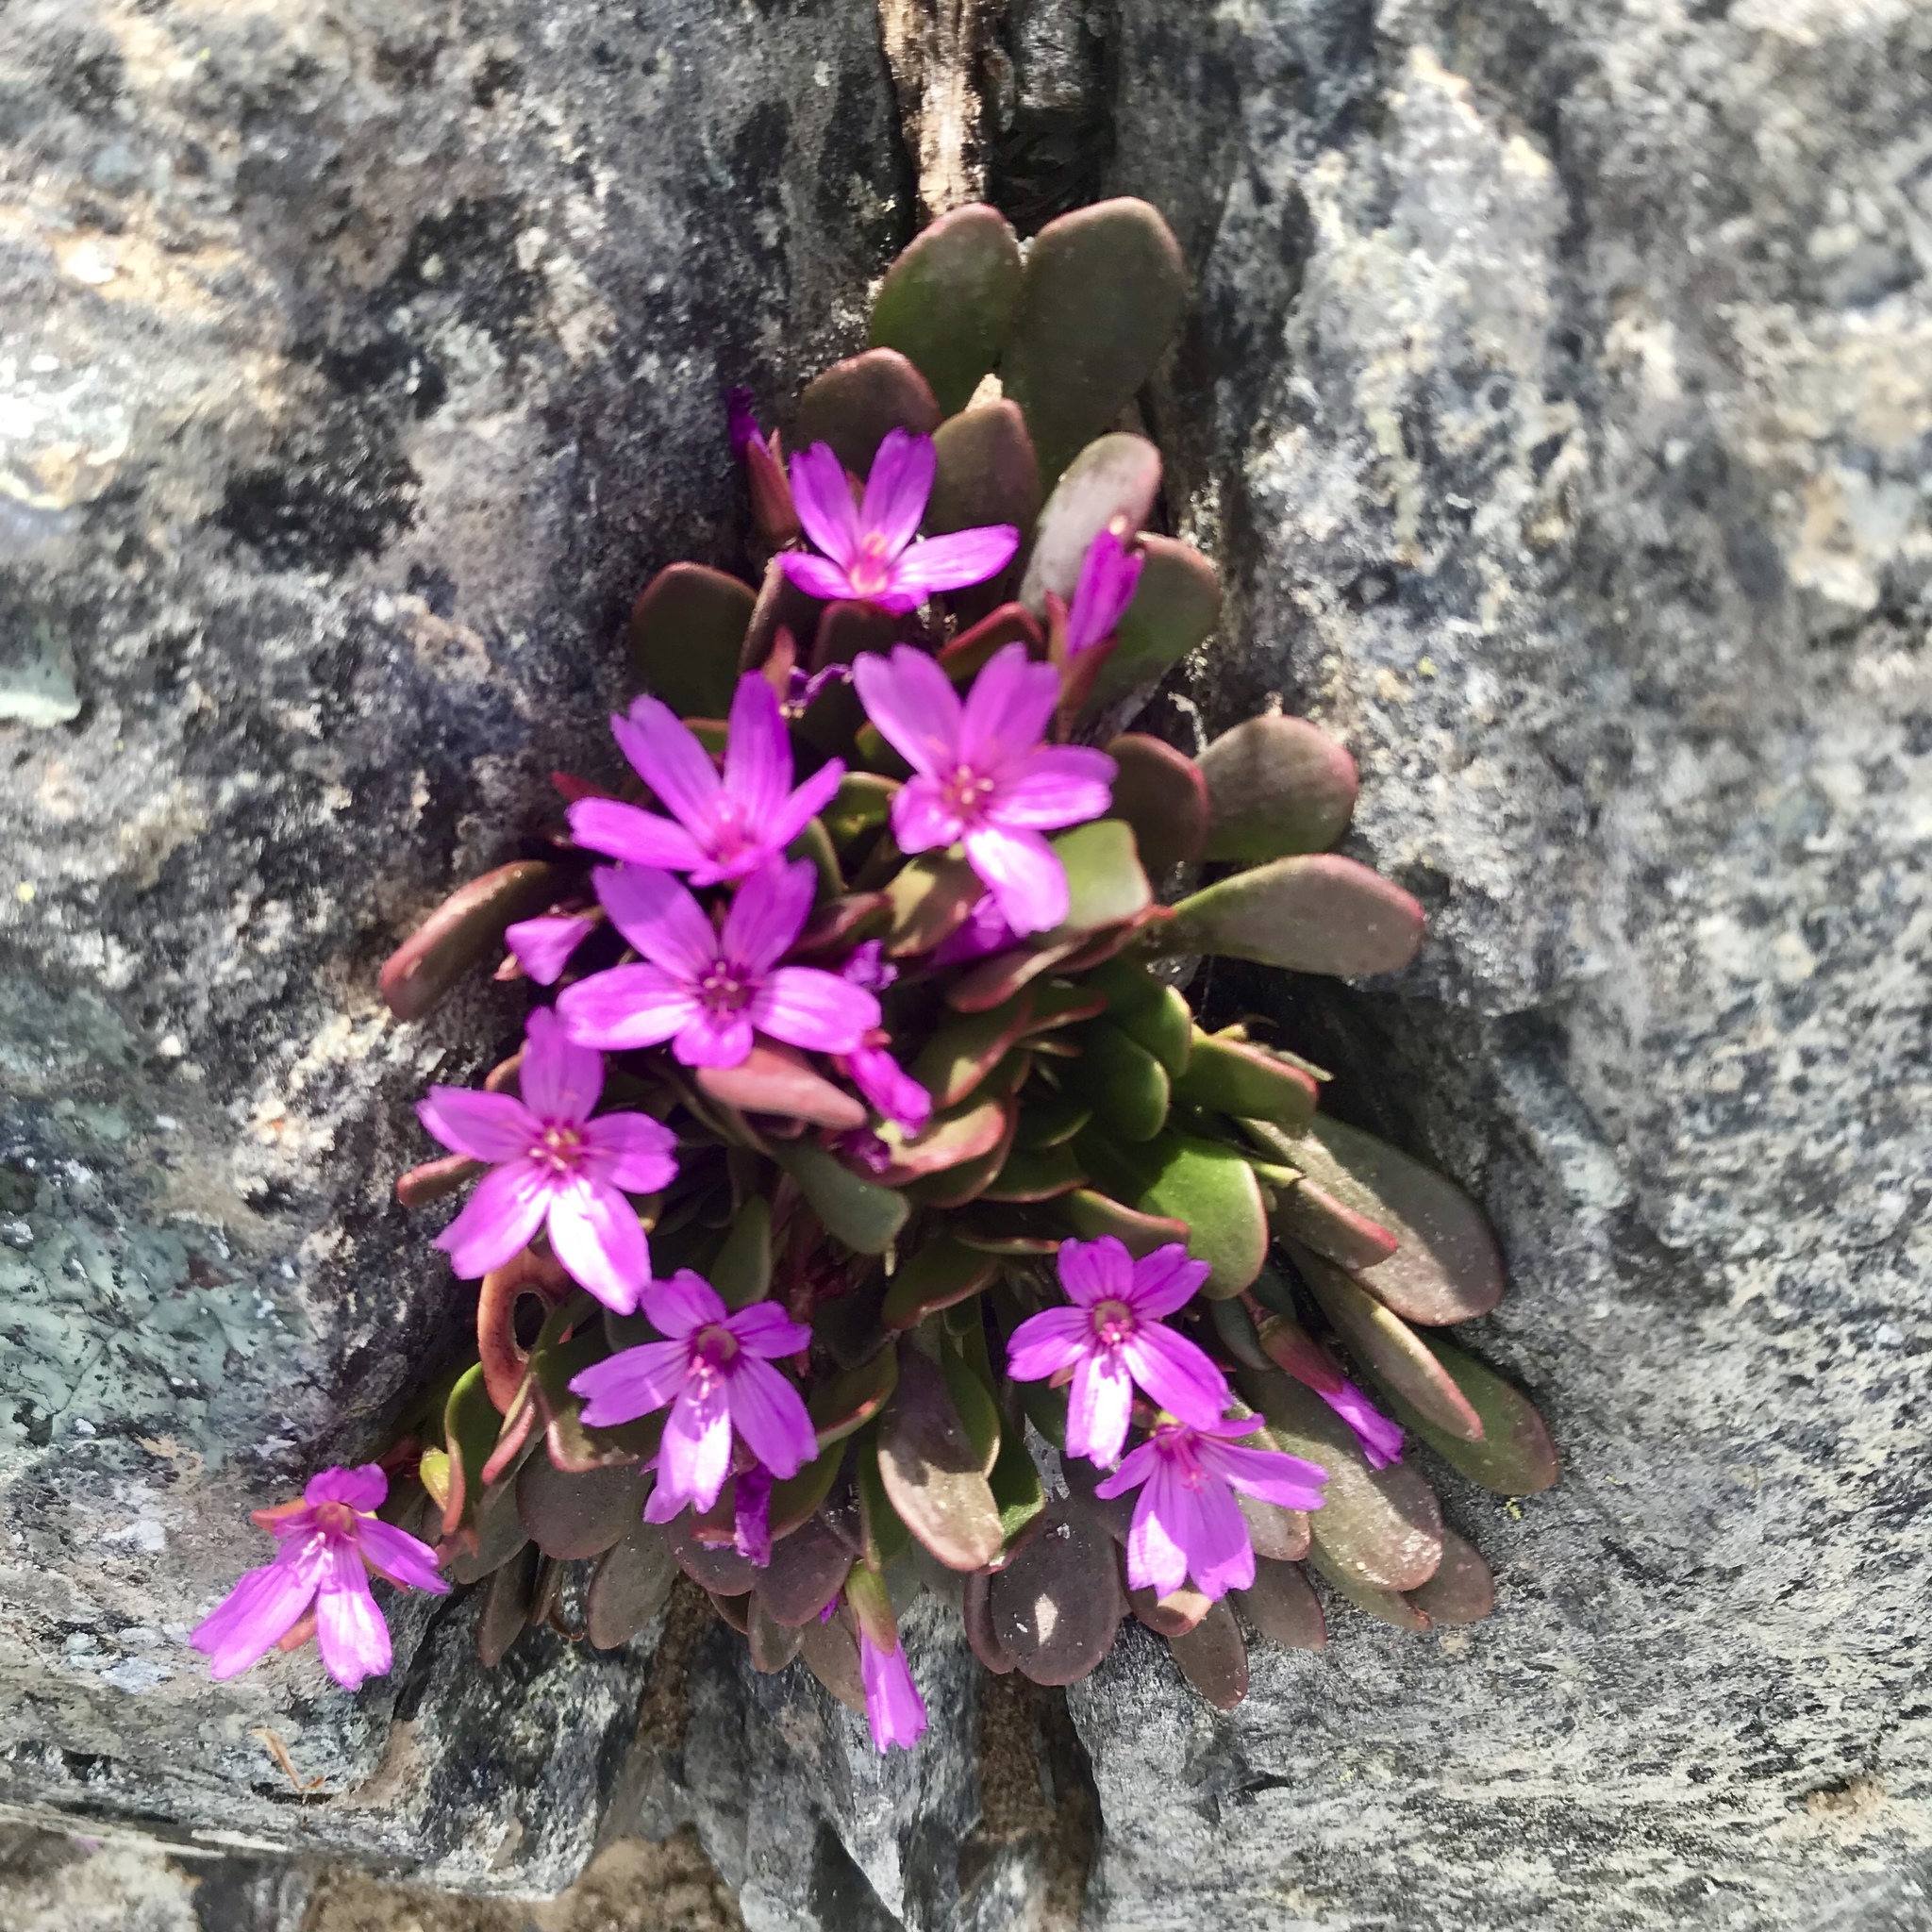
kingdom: Plantae
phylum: Tracheophyta
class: Magnoliopsida
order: Caryophyllales
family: Montiaceae
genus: Claytonia
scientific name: Claytonia megarhiza
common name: Alpine spring beauty
